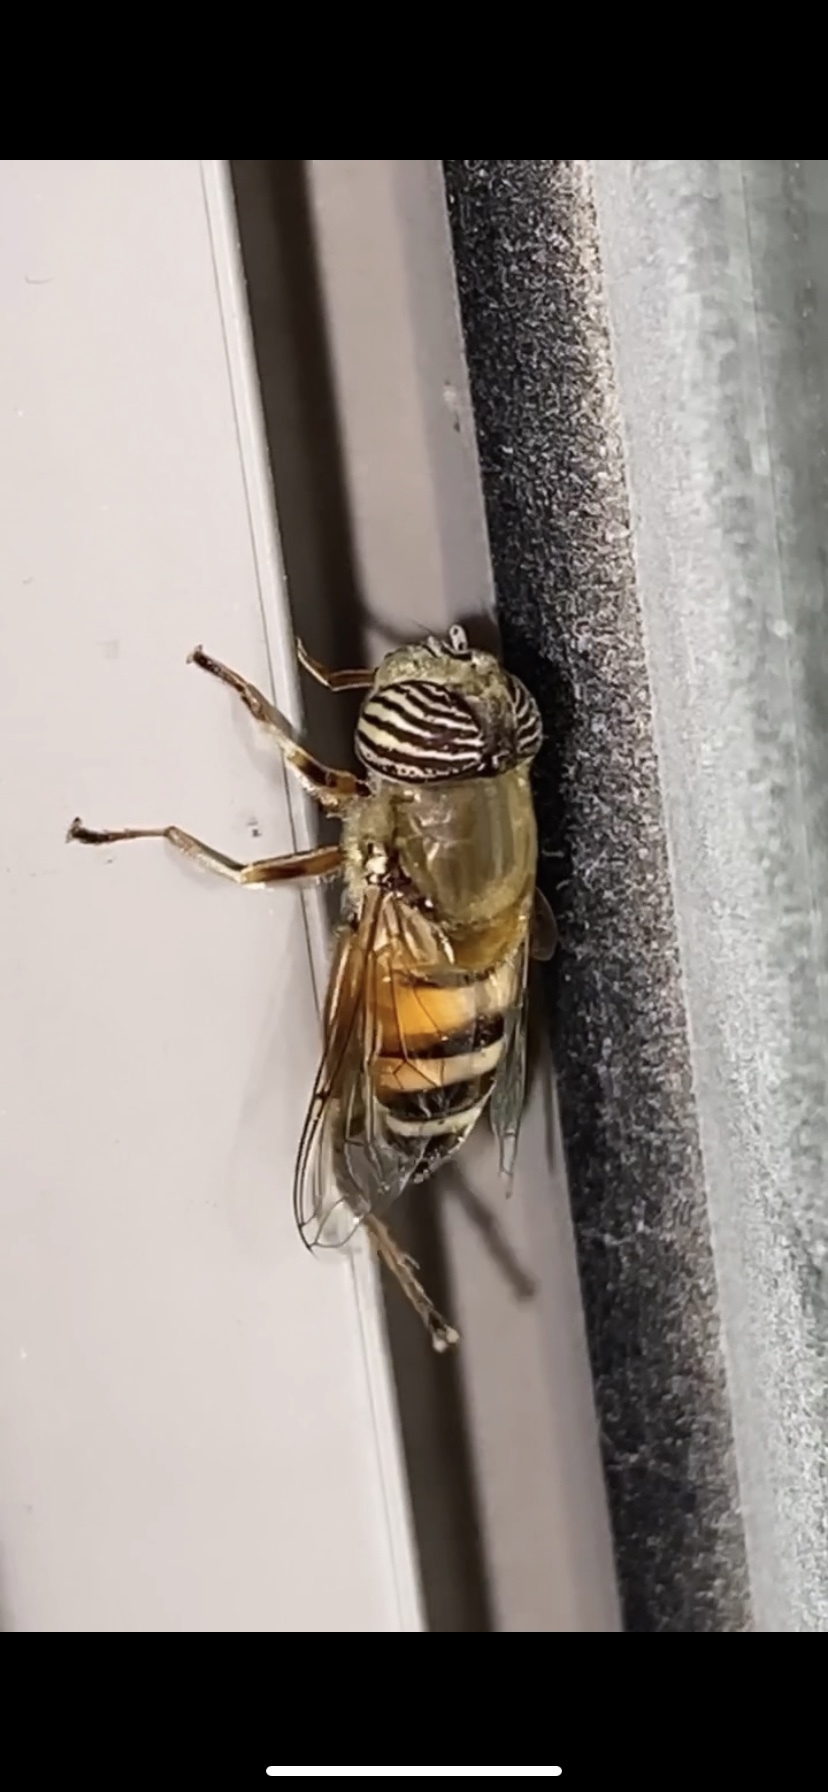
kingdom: Animalia
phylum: Arthropoda
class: Insecta
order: Diptera
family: Syrphidae
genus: Eristalinus
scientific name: Eristalinus taeniops
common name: Syrphid fly
